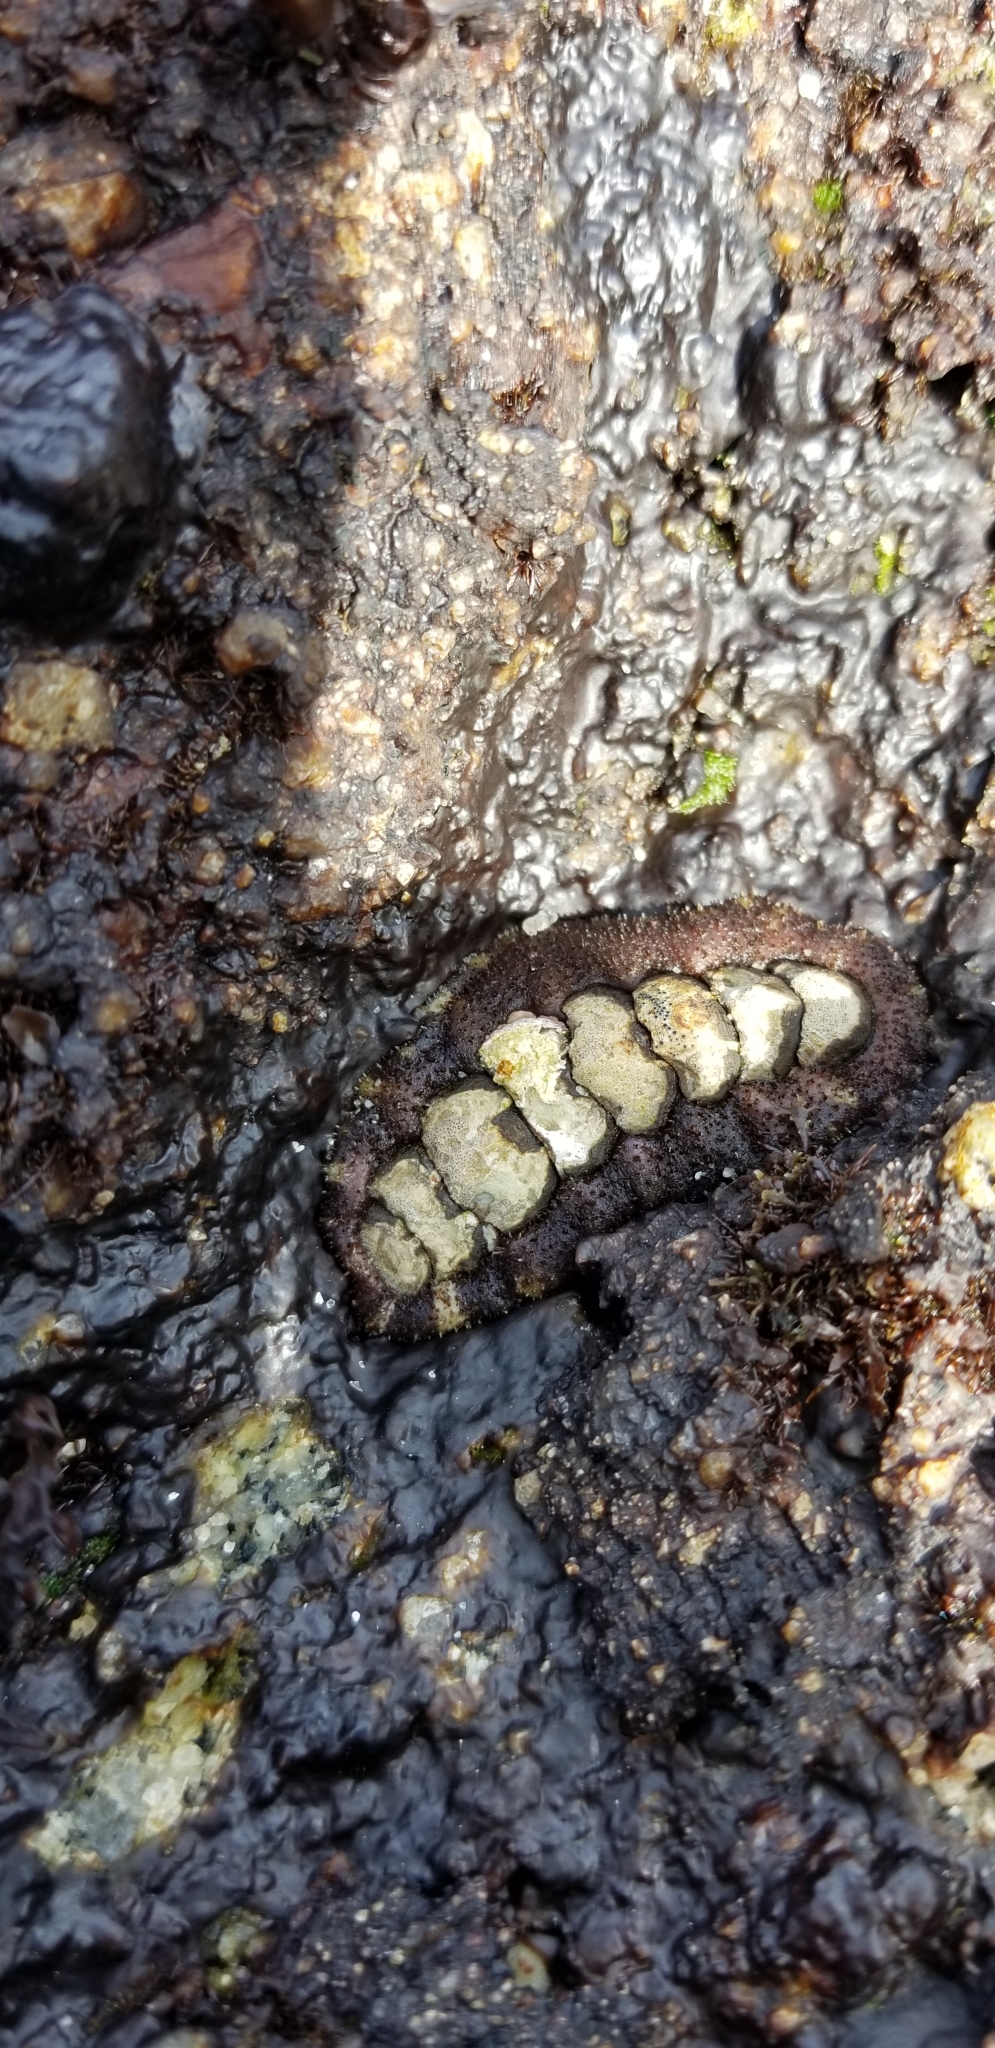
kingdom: Animalia
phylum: Mollusca
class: Polyplacophora
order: Chitonida
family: Tonicellidae
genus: Nuttallina
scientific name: Nuttallina californica
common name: California nuttall chiton
